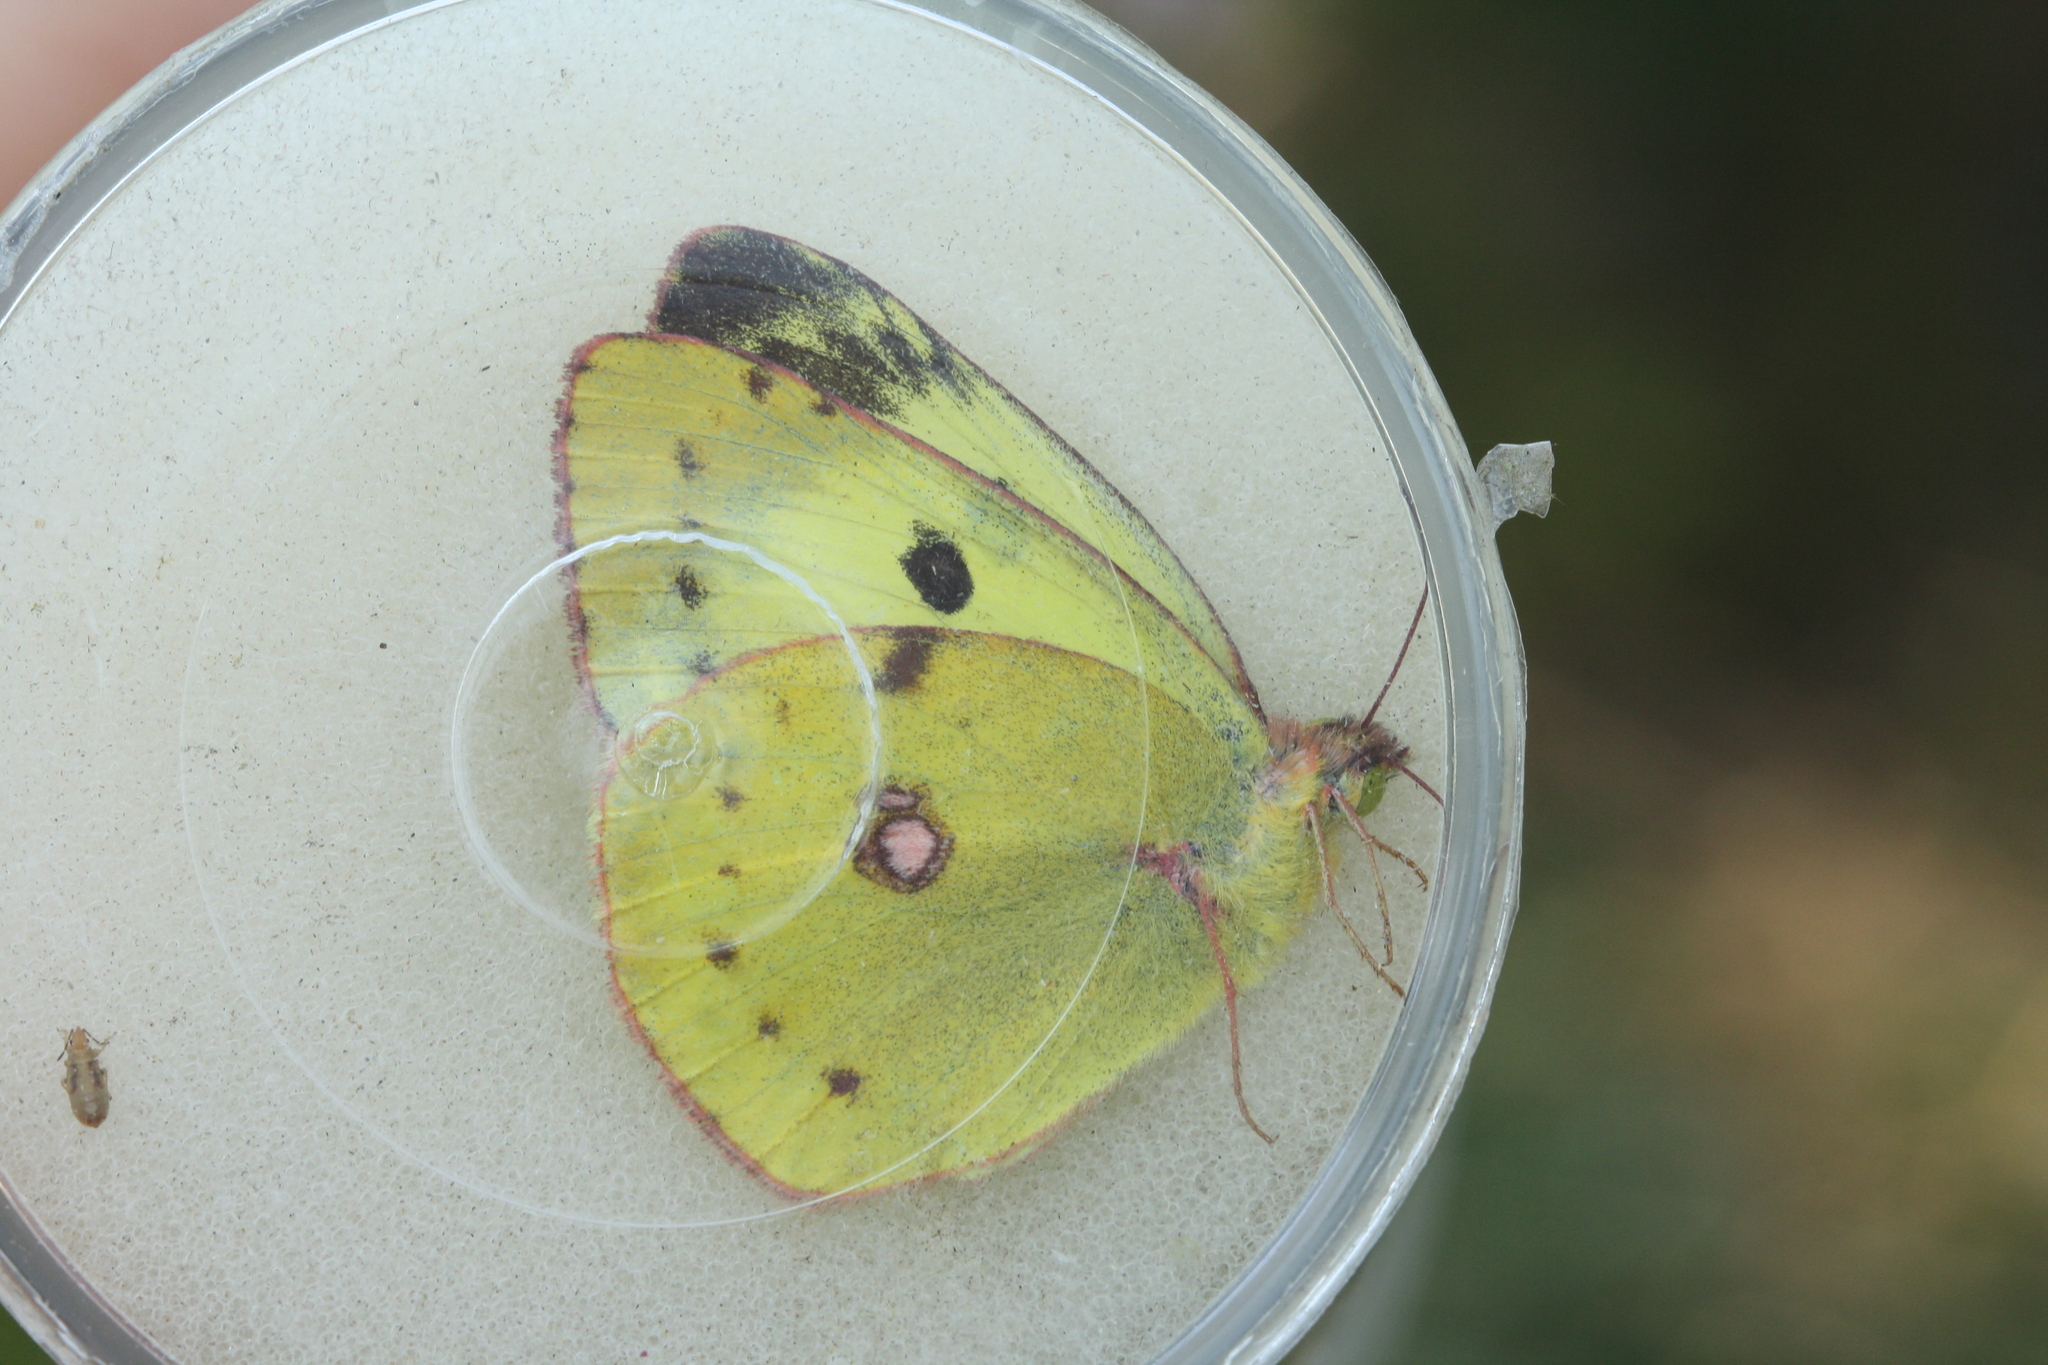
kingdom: Animalia
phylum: Arthropoda
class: Insecta
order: Lepidoptera
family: Pieridae
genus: Colias
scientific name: Colias alfacariensis
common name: Berger's clouded yellow
